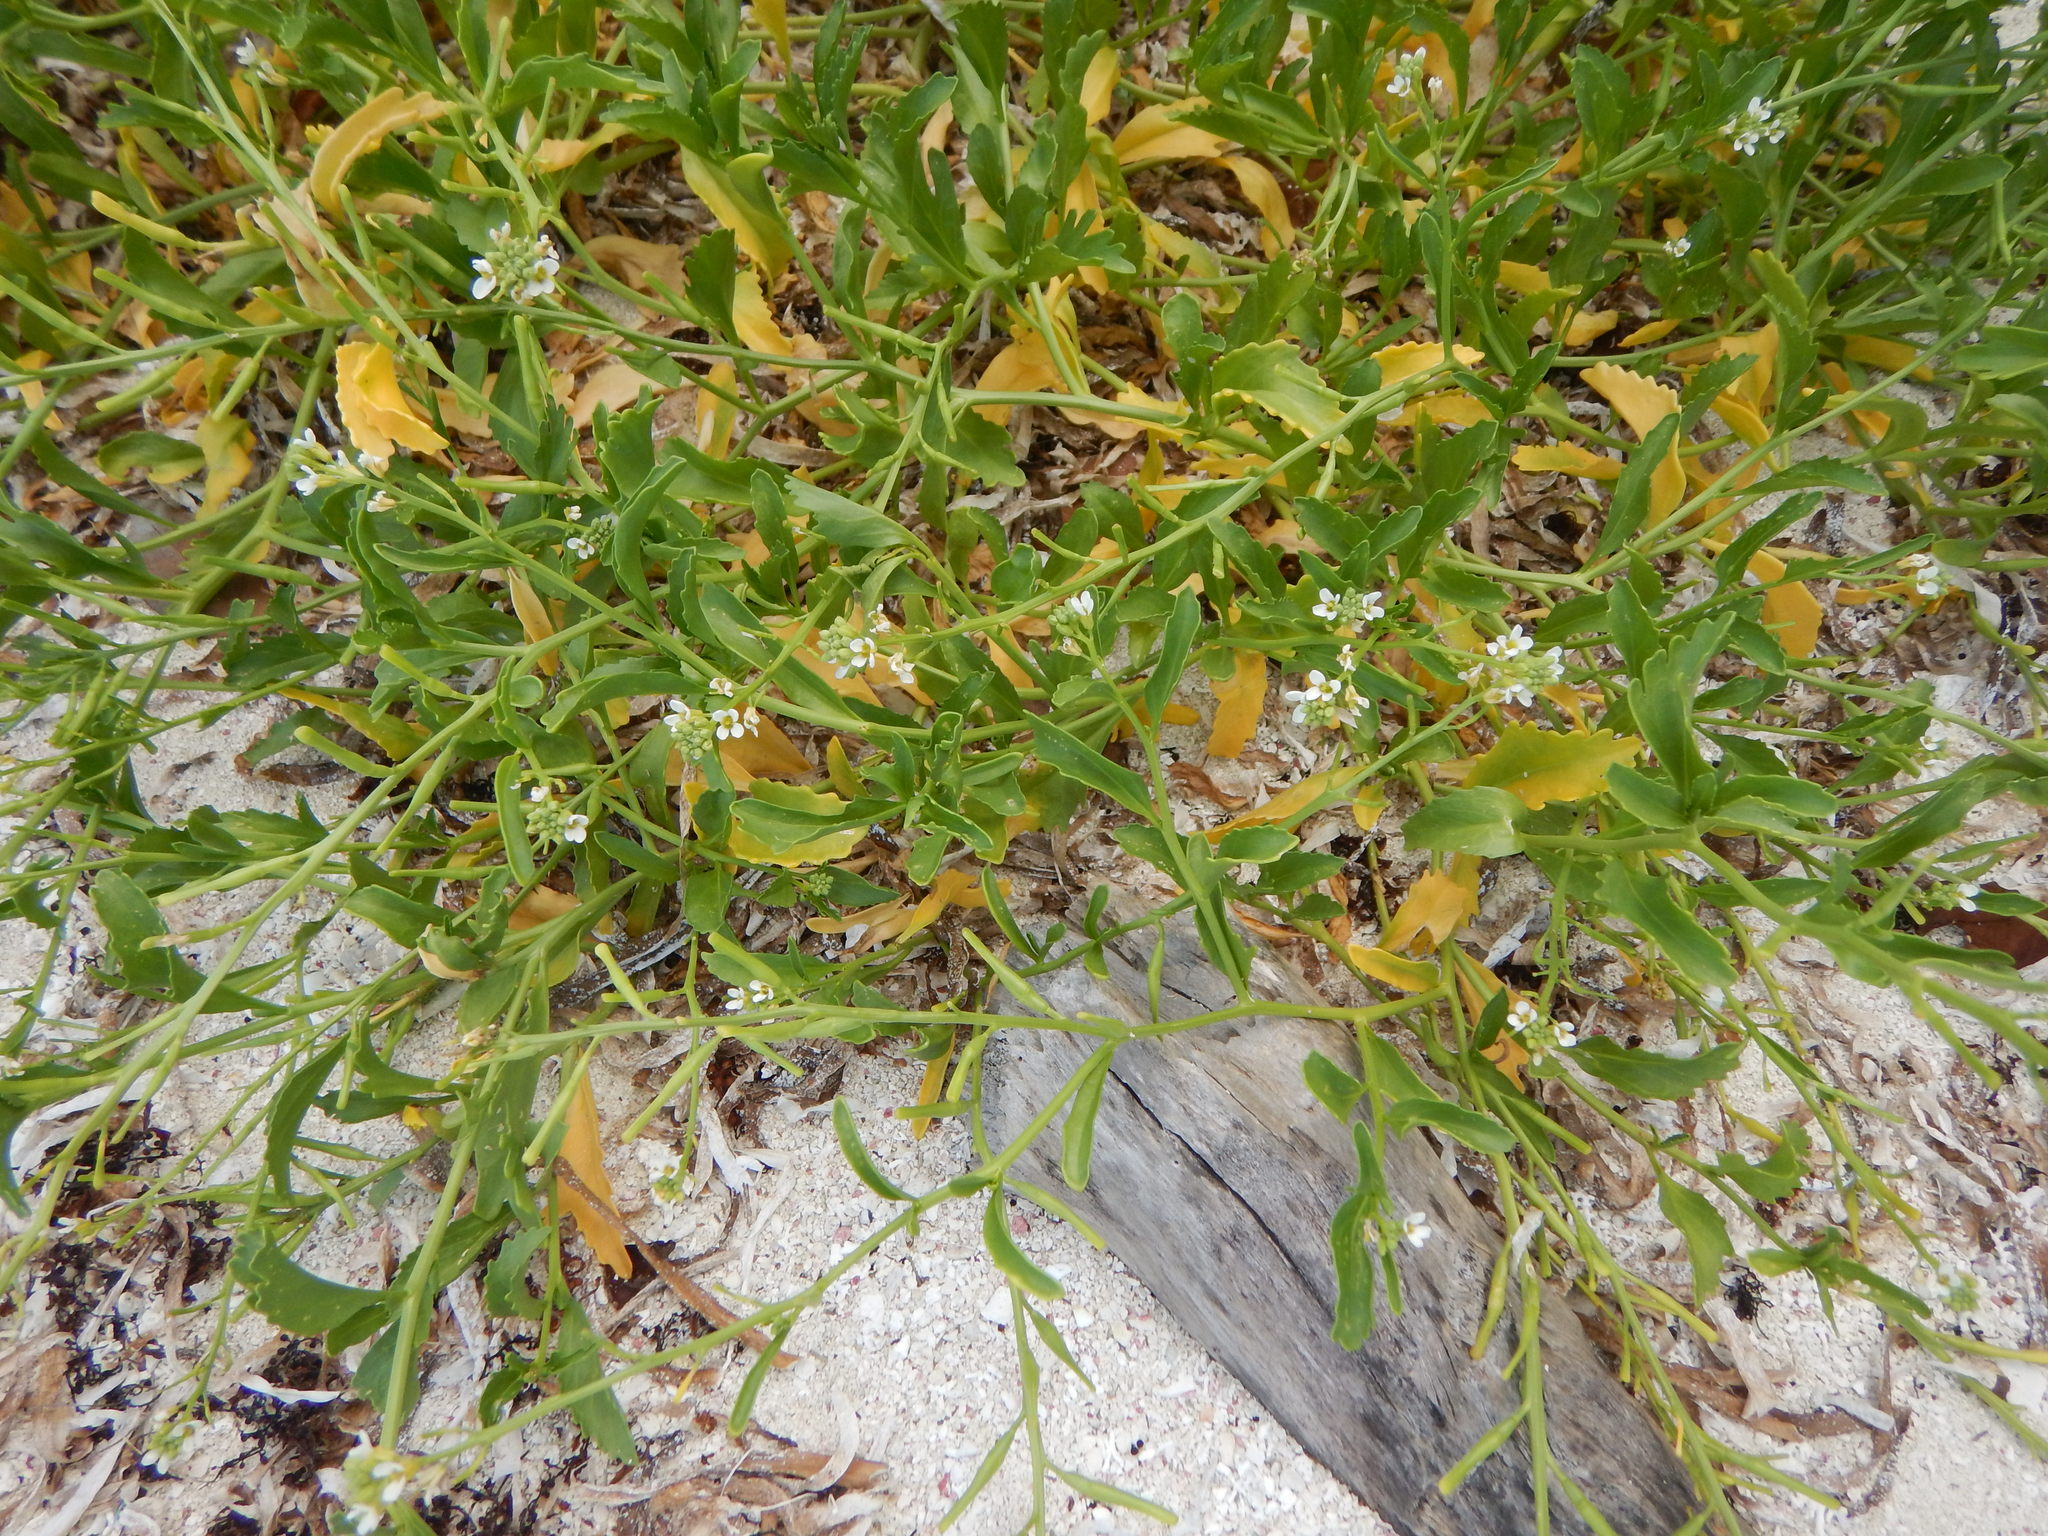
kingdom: Plantae
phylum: Tracheophyta
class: Magnoliopsida
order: Brassicales
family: Brassicaceae
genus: Cakile
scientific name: Cakile lanceolata
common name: Sea rocket
